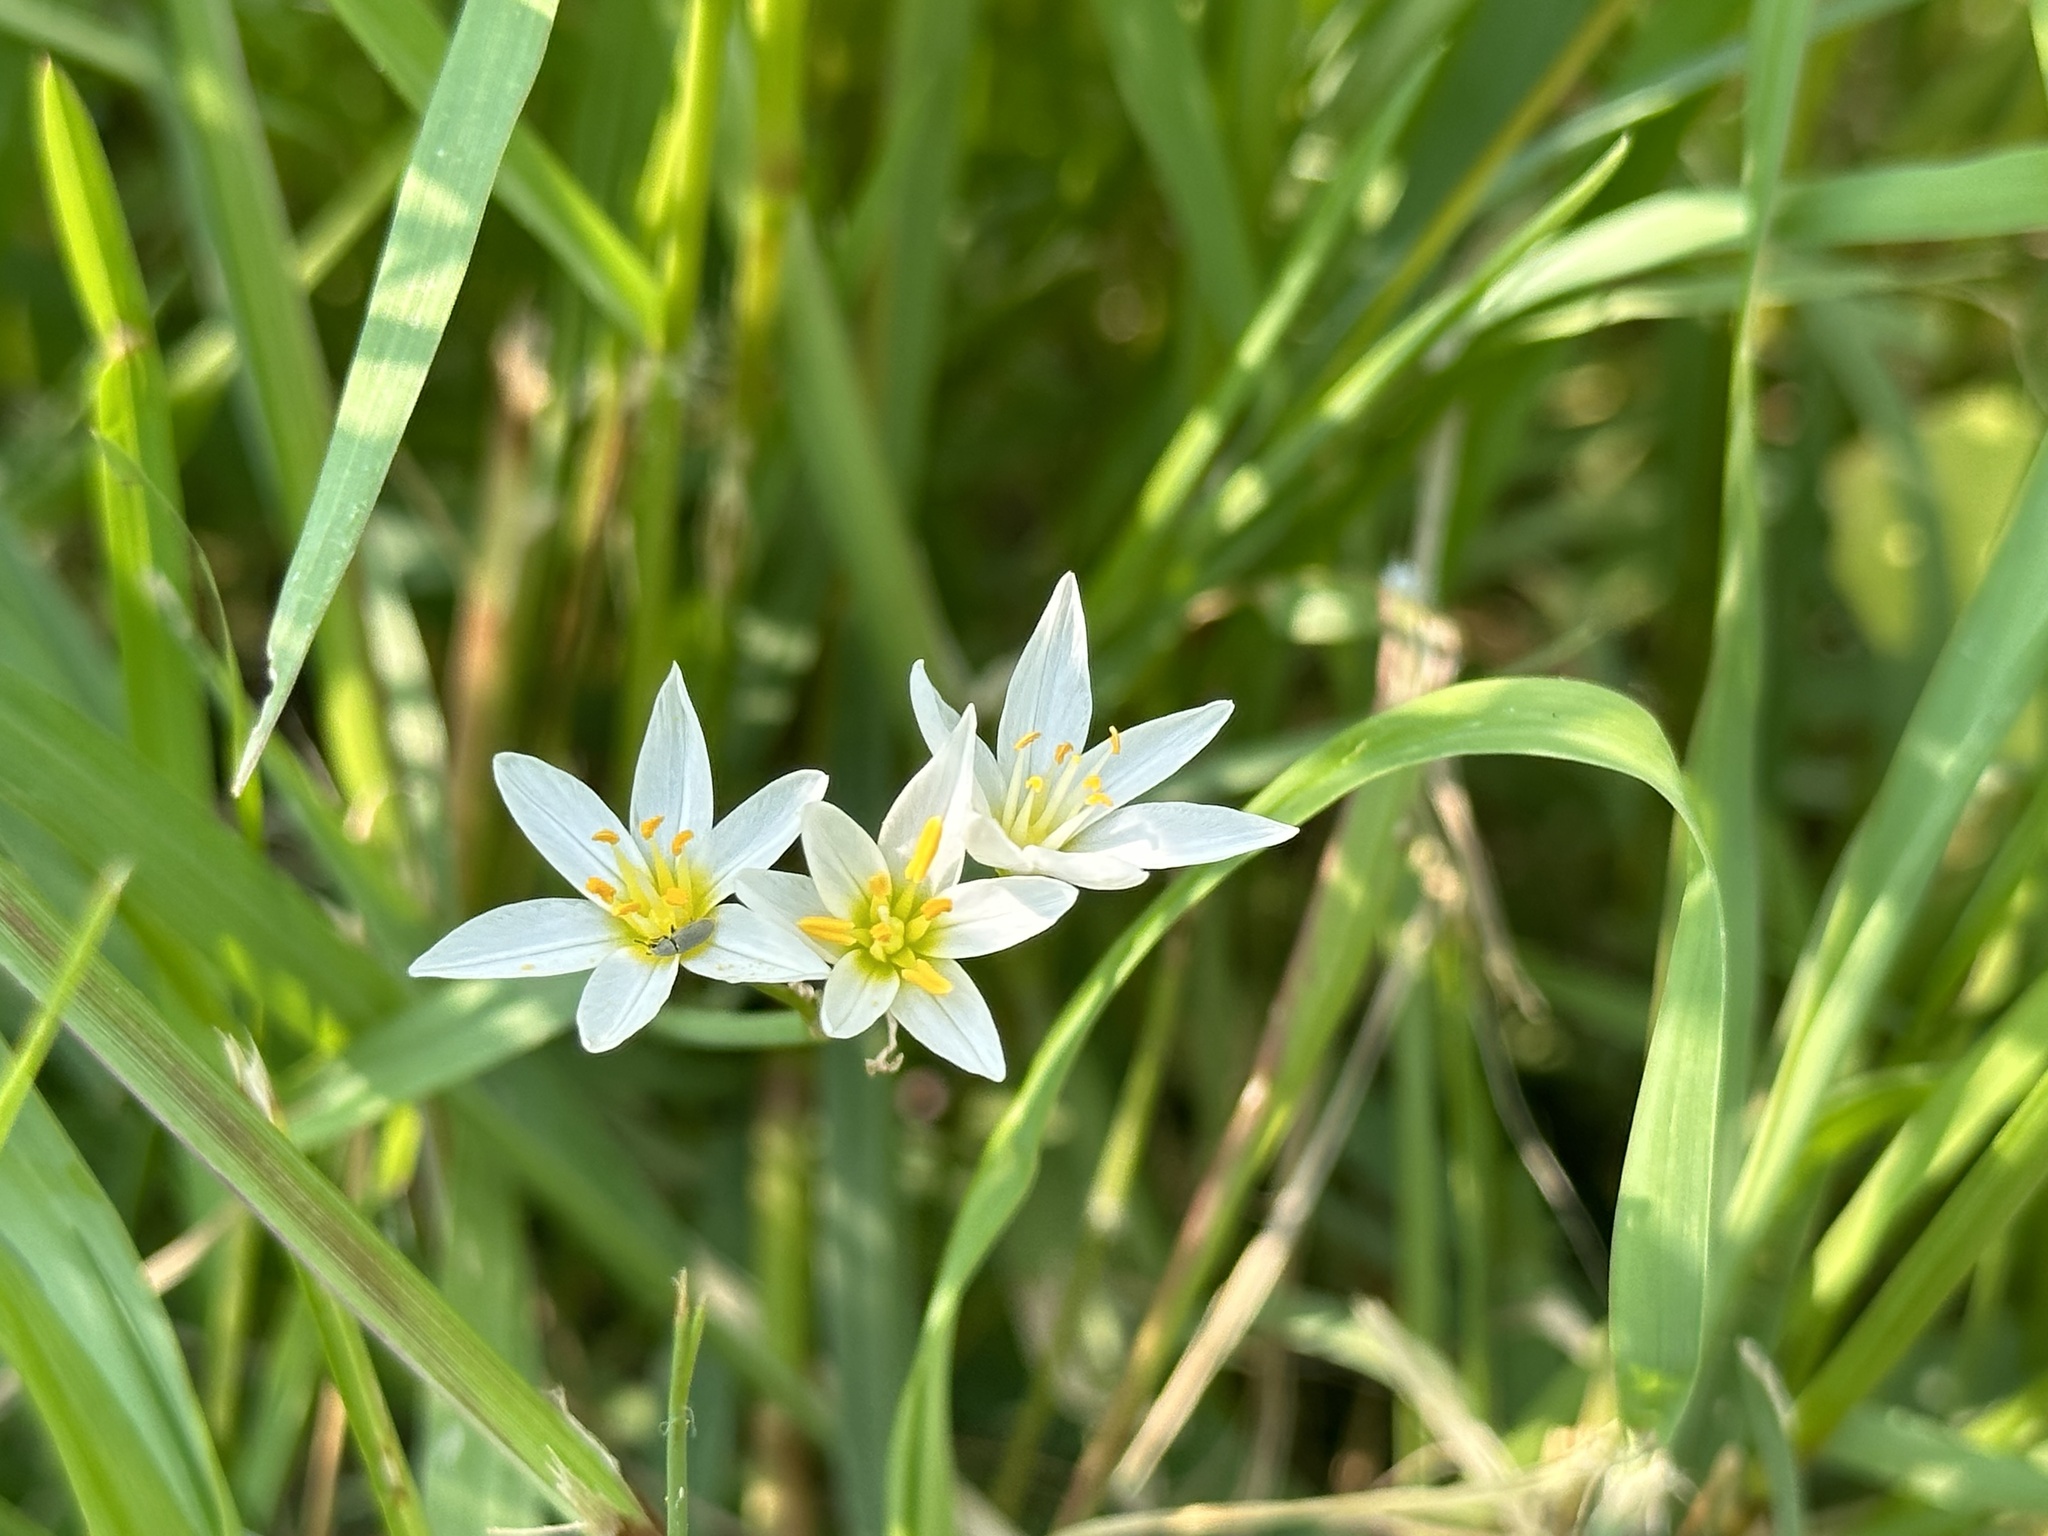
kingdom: Plantae
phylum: Tracheophyta
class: Liliopsida
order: Asparagales
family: Amaryllidaceae
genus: Nothoscordum
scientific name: Nothoscordum bivalve
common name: Crow-poison
